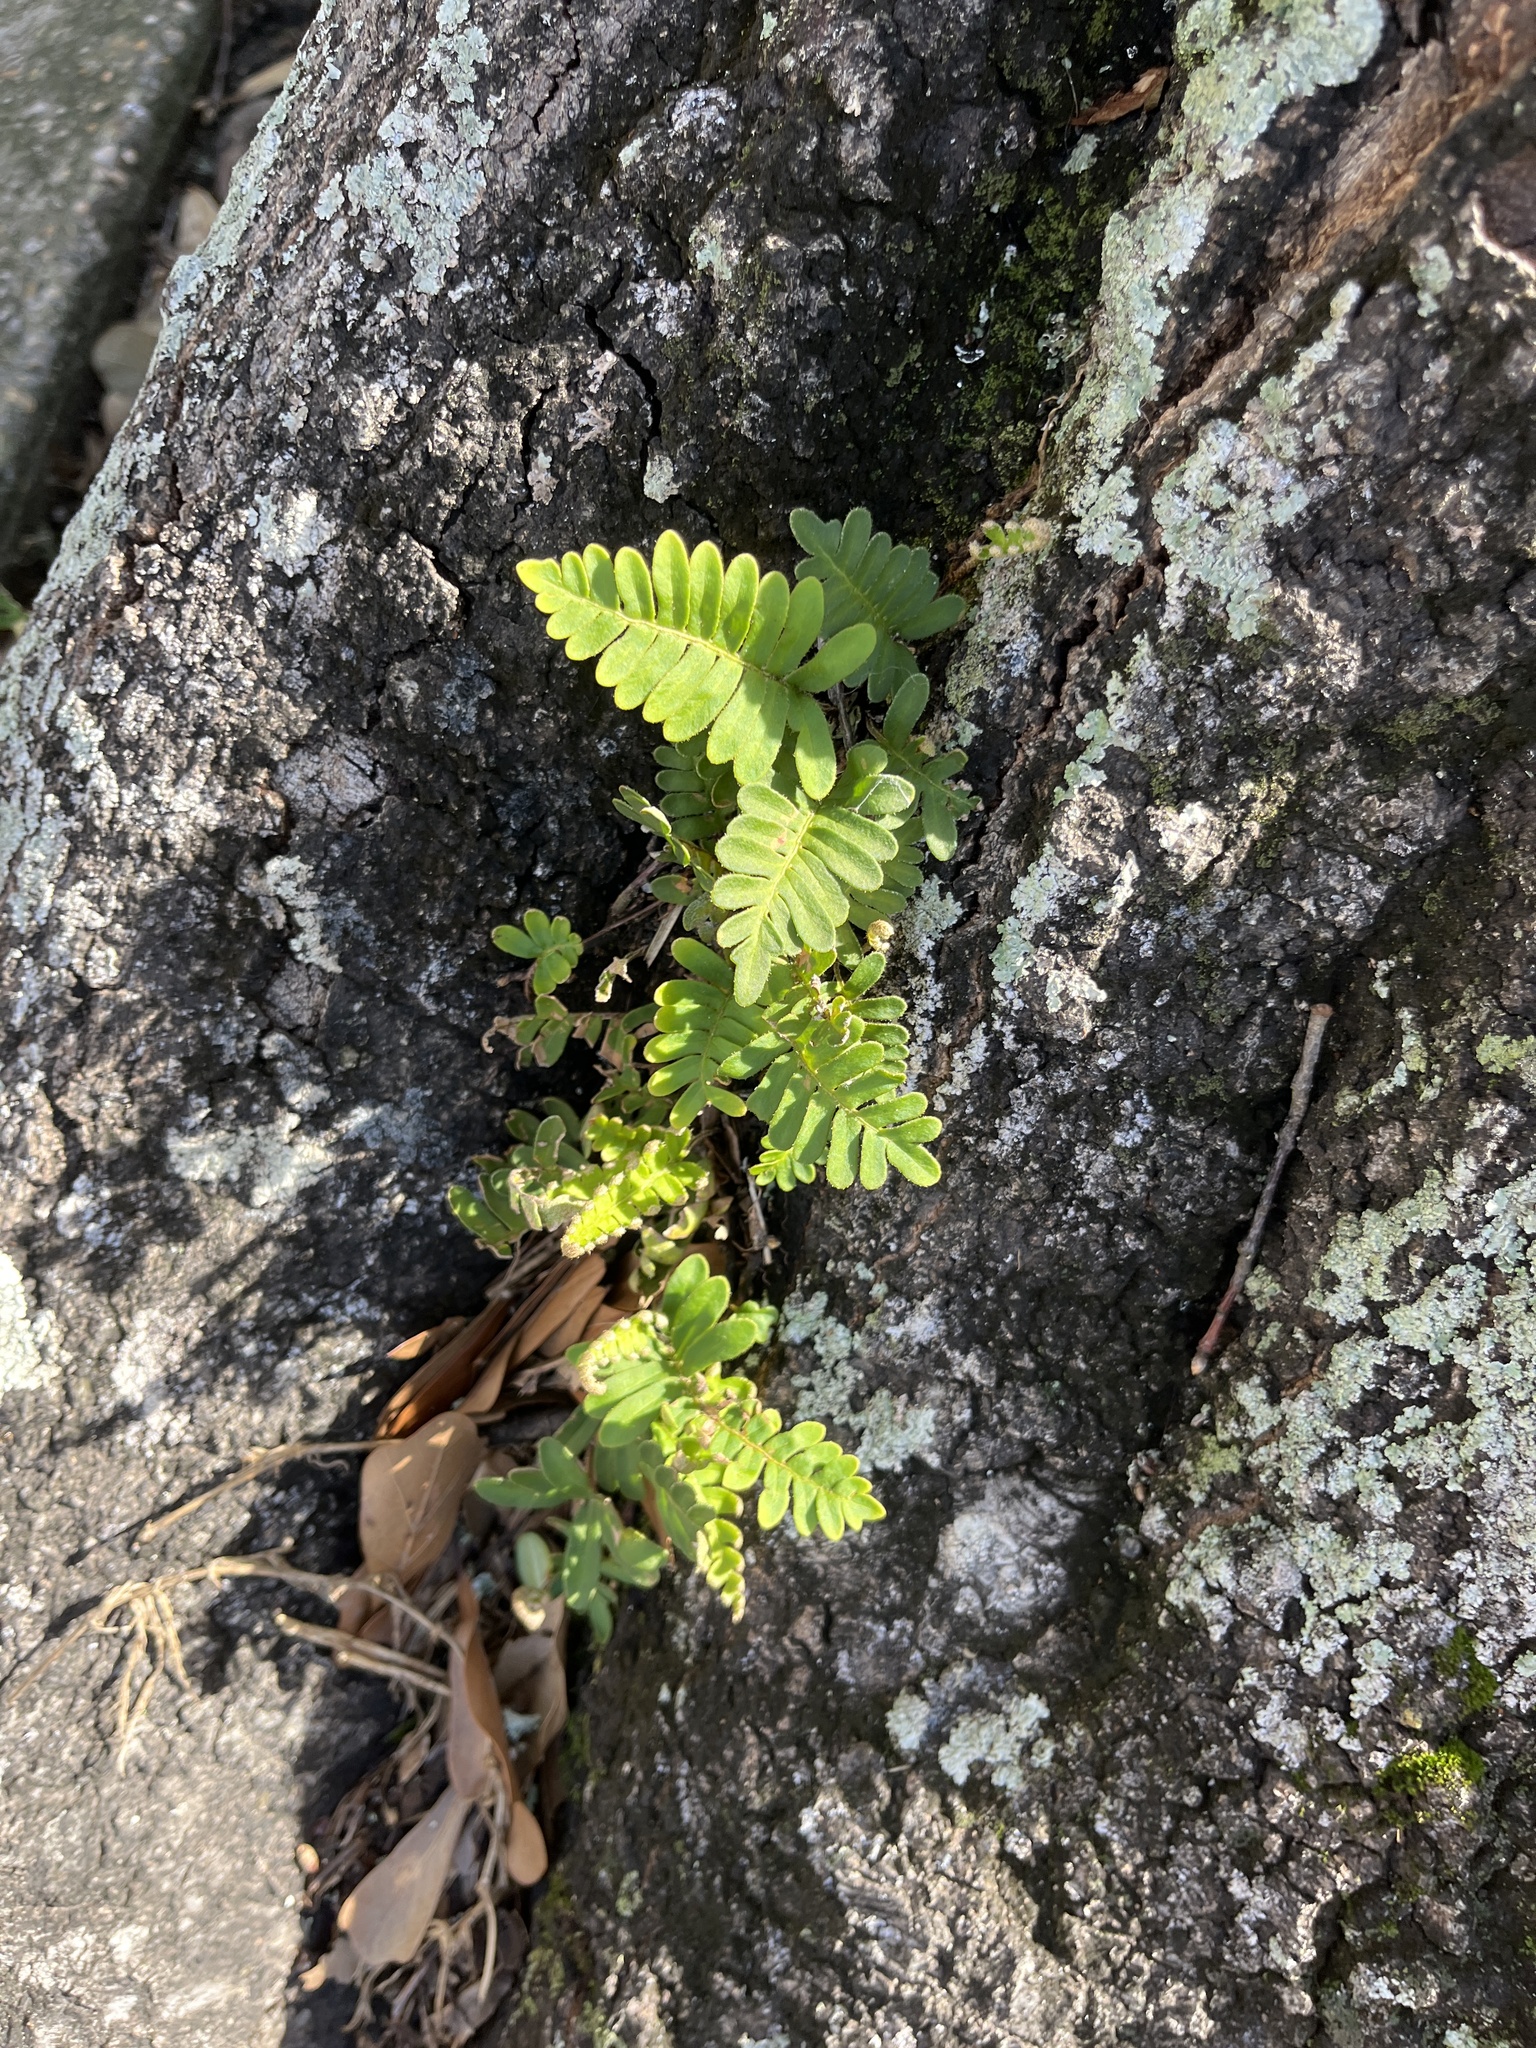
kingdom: Plantae
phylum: Tracheophyta
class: Polypodiopsida
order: Polypodiales
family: Polypodiaceae
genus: Pleopeltis
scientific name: Pleopeltis michauxiana
